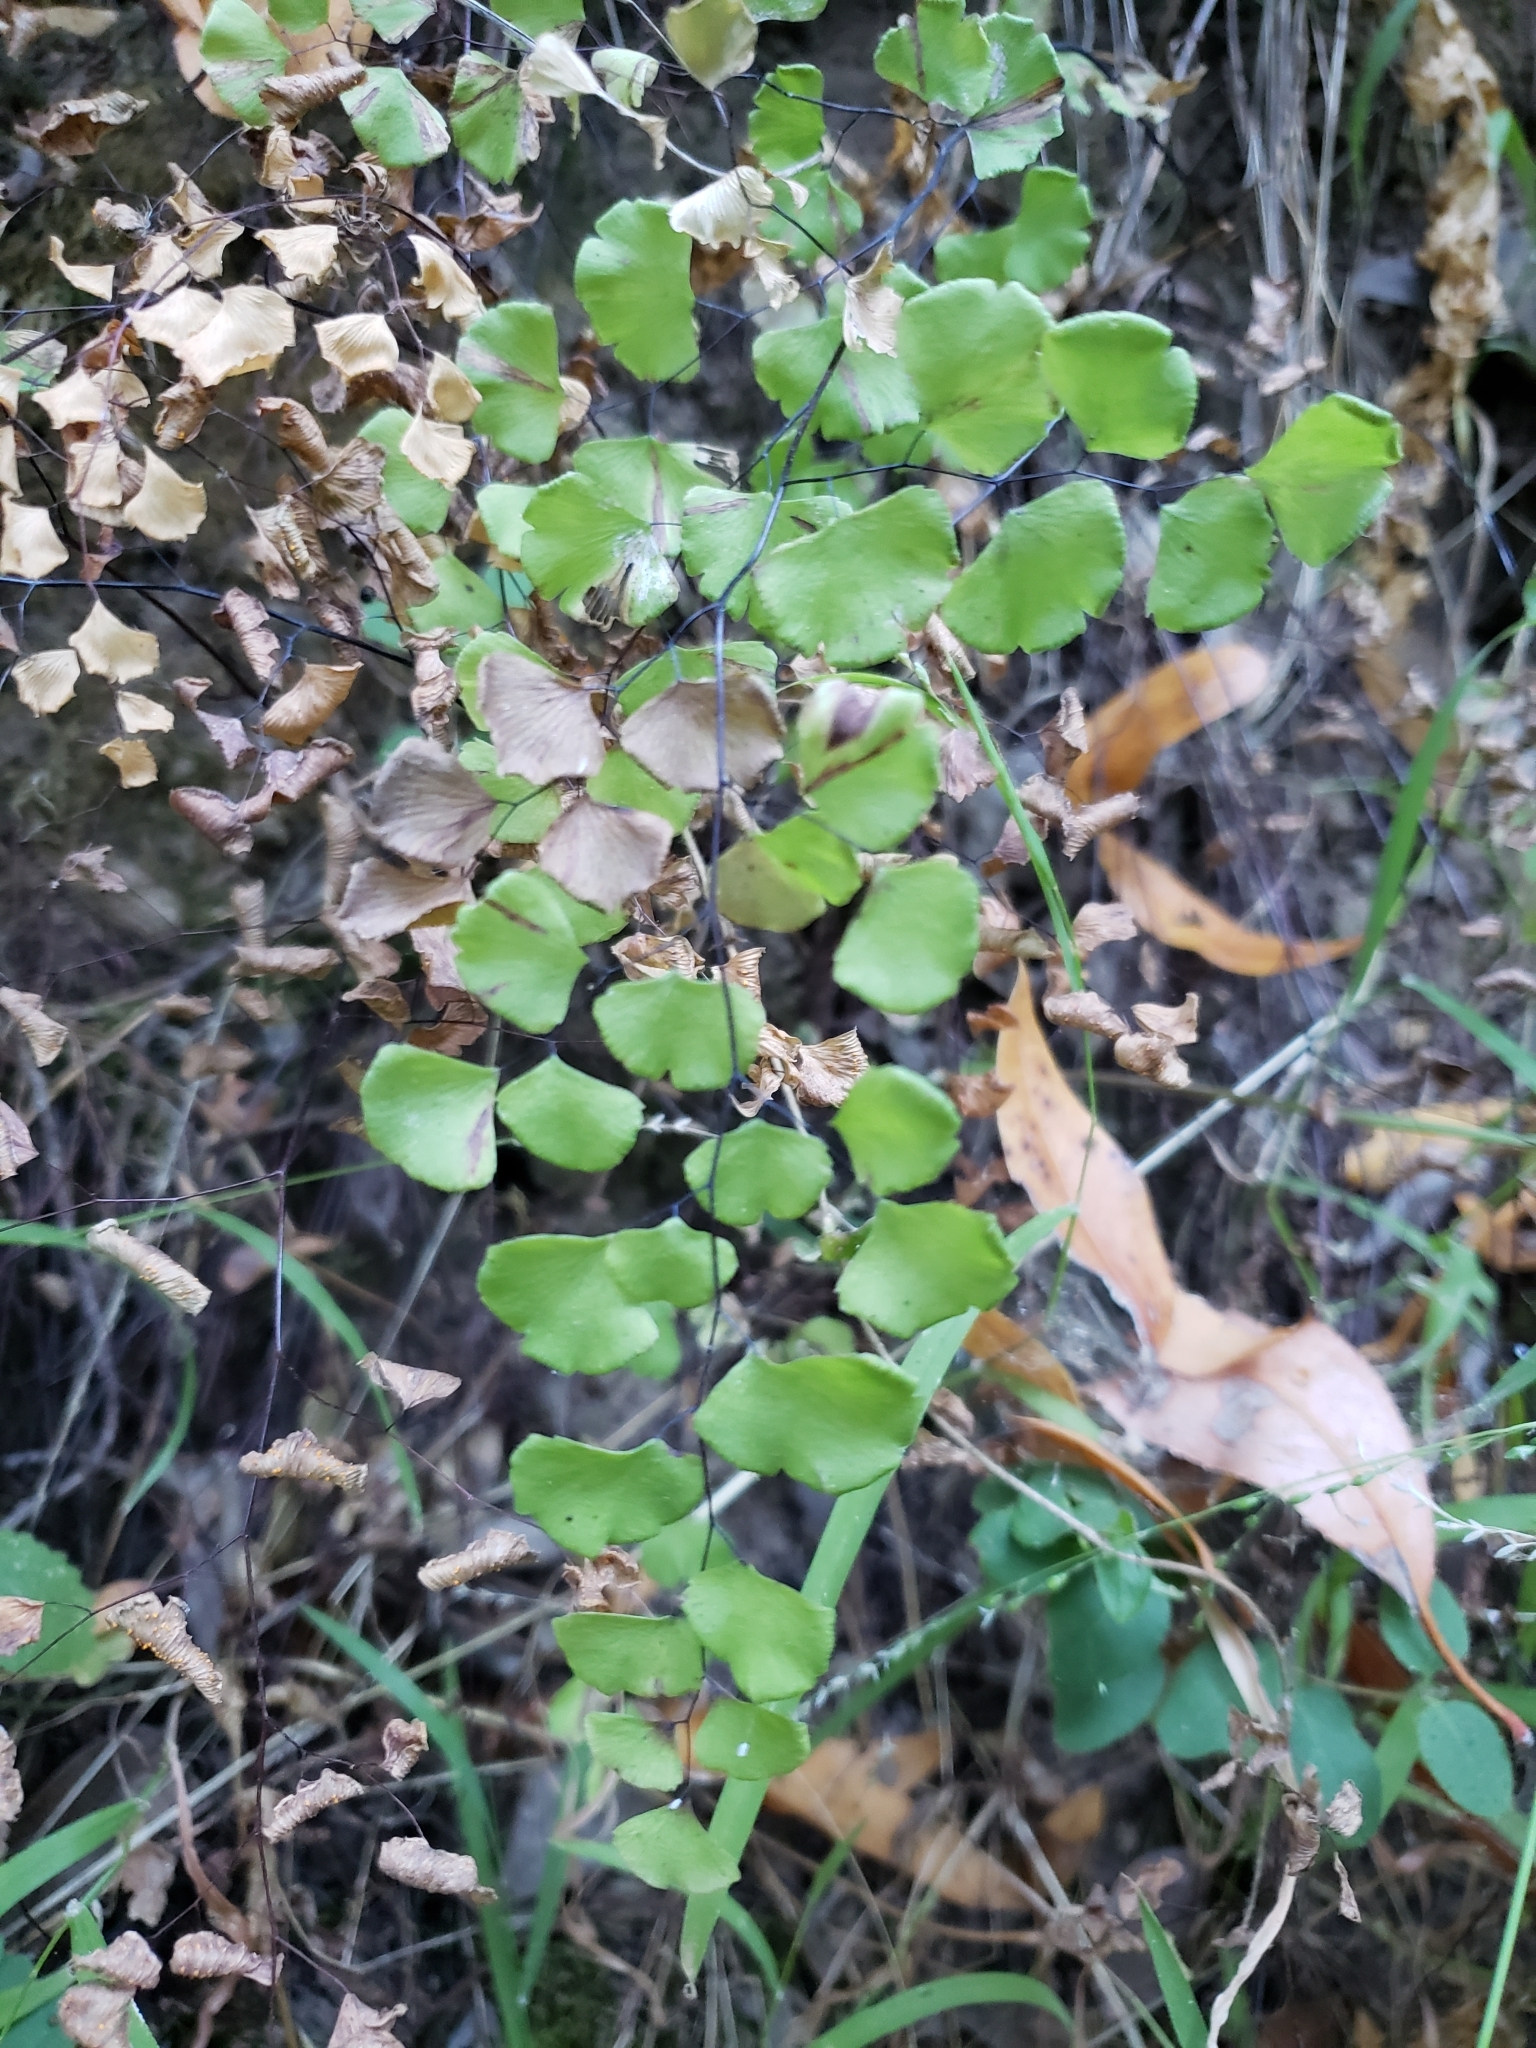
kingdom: Plantae
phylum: Tracheophyta
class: Polypodiopsida
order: Polypodiales
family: Pteridaceae
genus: Adiantum
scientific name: Adiantum jordanii
